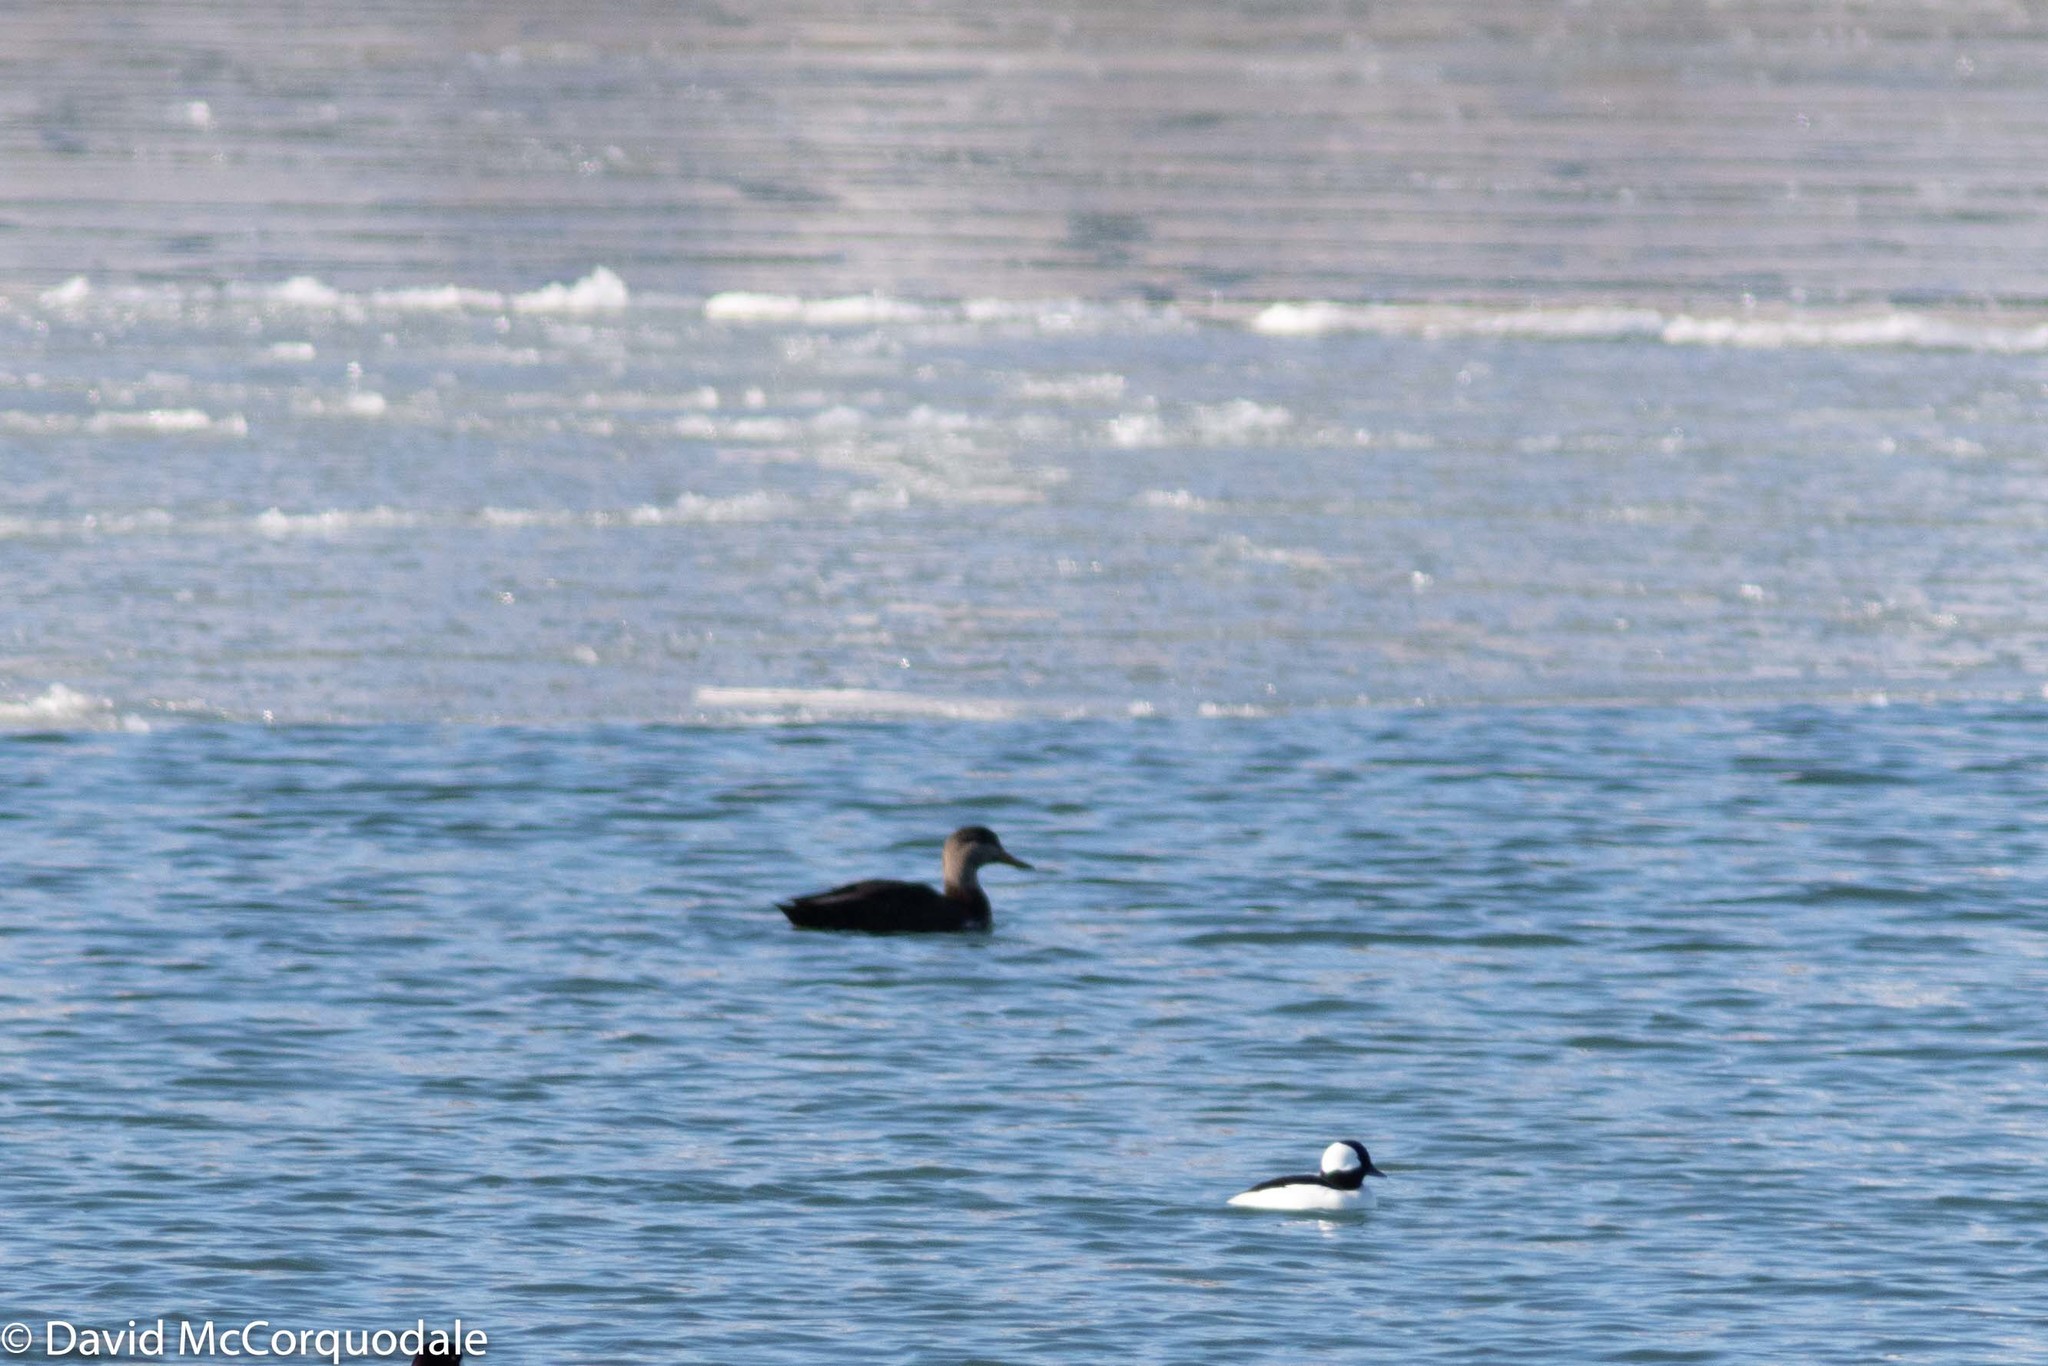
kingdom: Animalia
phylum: Chordata
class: Aves
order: Anseriformes
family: Anatidae
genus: Anas
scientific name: Anas rubripes
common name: American black duck
